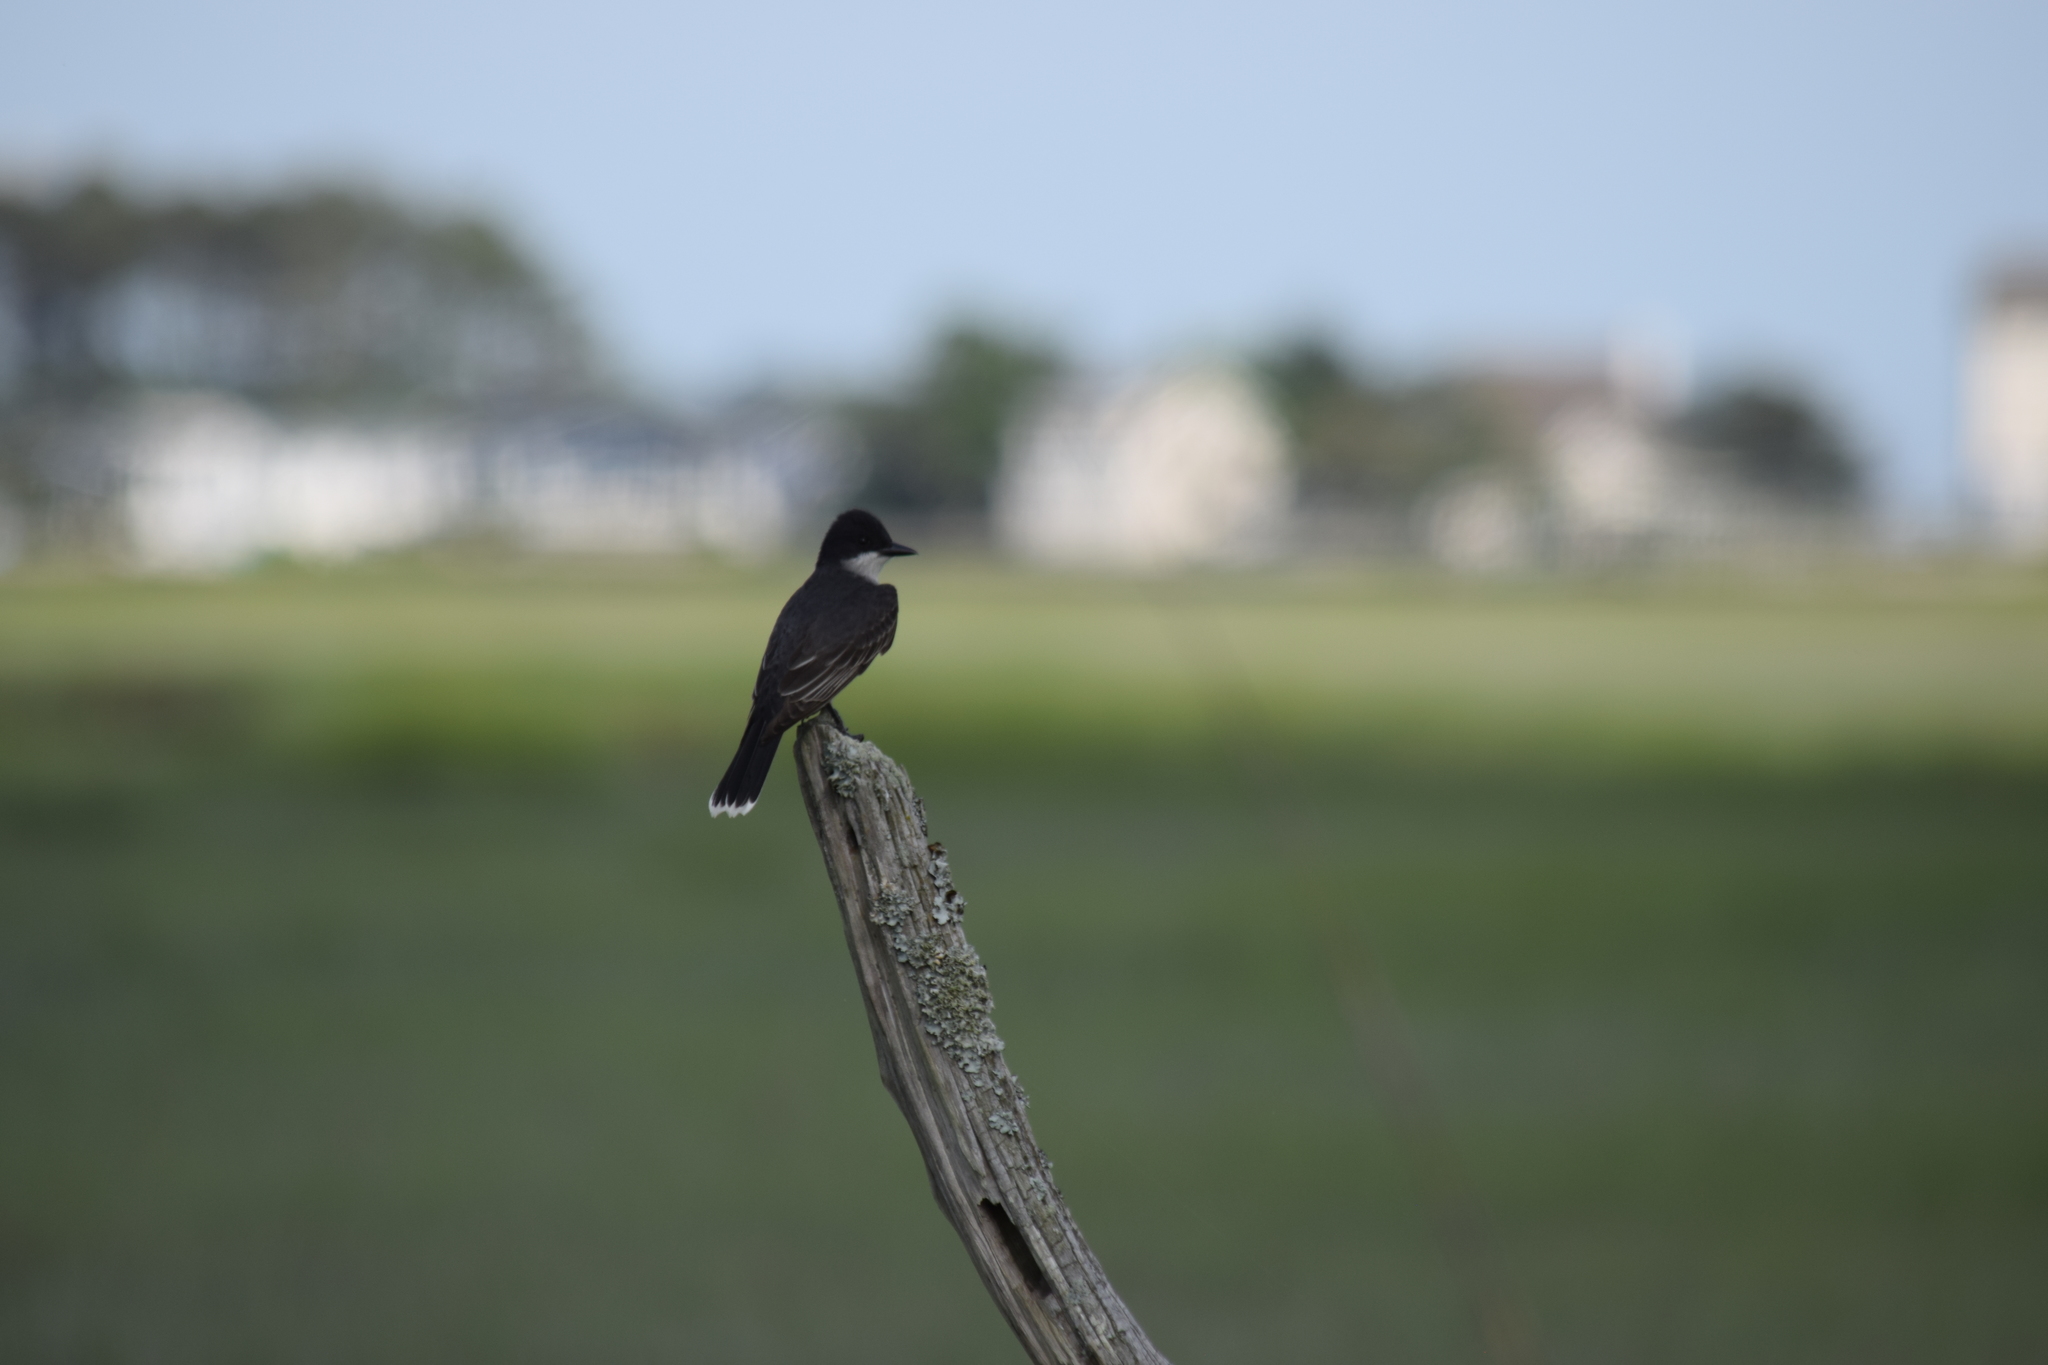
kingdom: Animalia
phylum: Chordata
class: Aves
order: Passeriformes
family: Tyrannidae
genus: Tyrannus
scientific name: Tyrannus tyrannus
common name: Eastern kingbird
